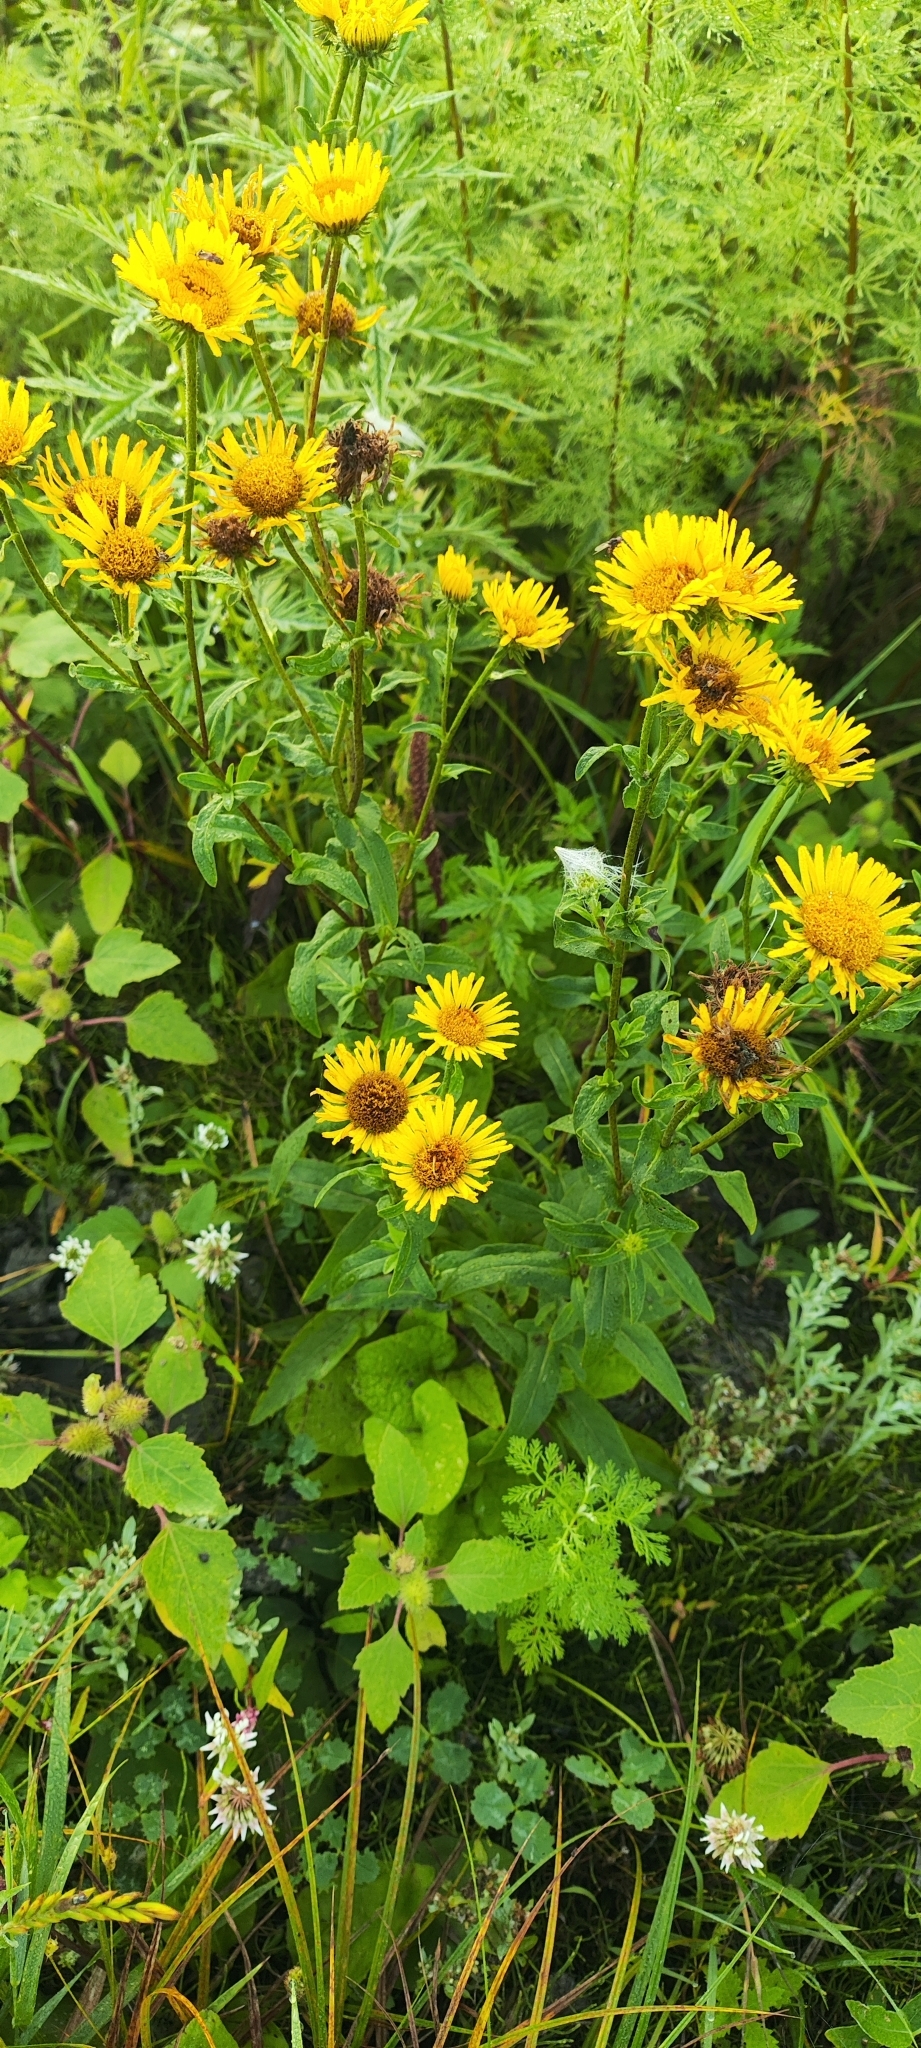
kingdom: Plantae
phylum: Tracheophyta
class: Magnoliopsida
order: Asterales
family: Asteraceae
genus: Pentanema
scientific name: Pentanema britannicum
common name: British elecampane
